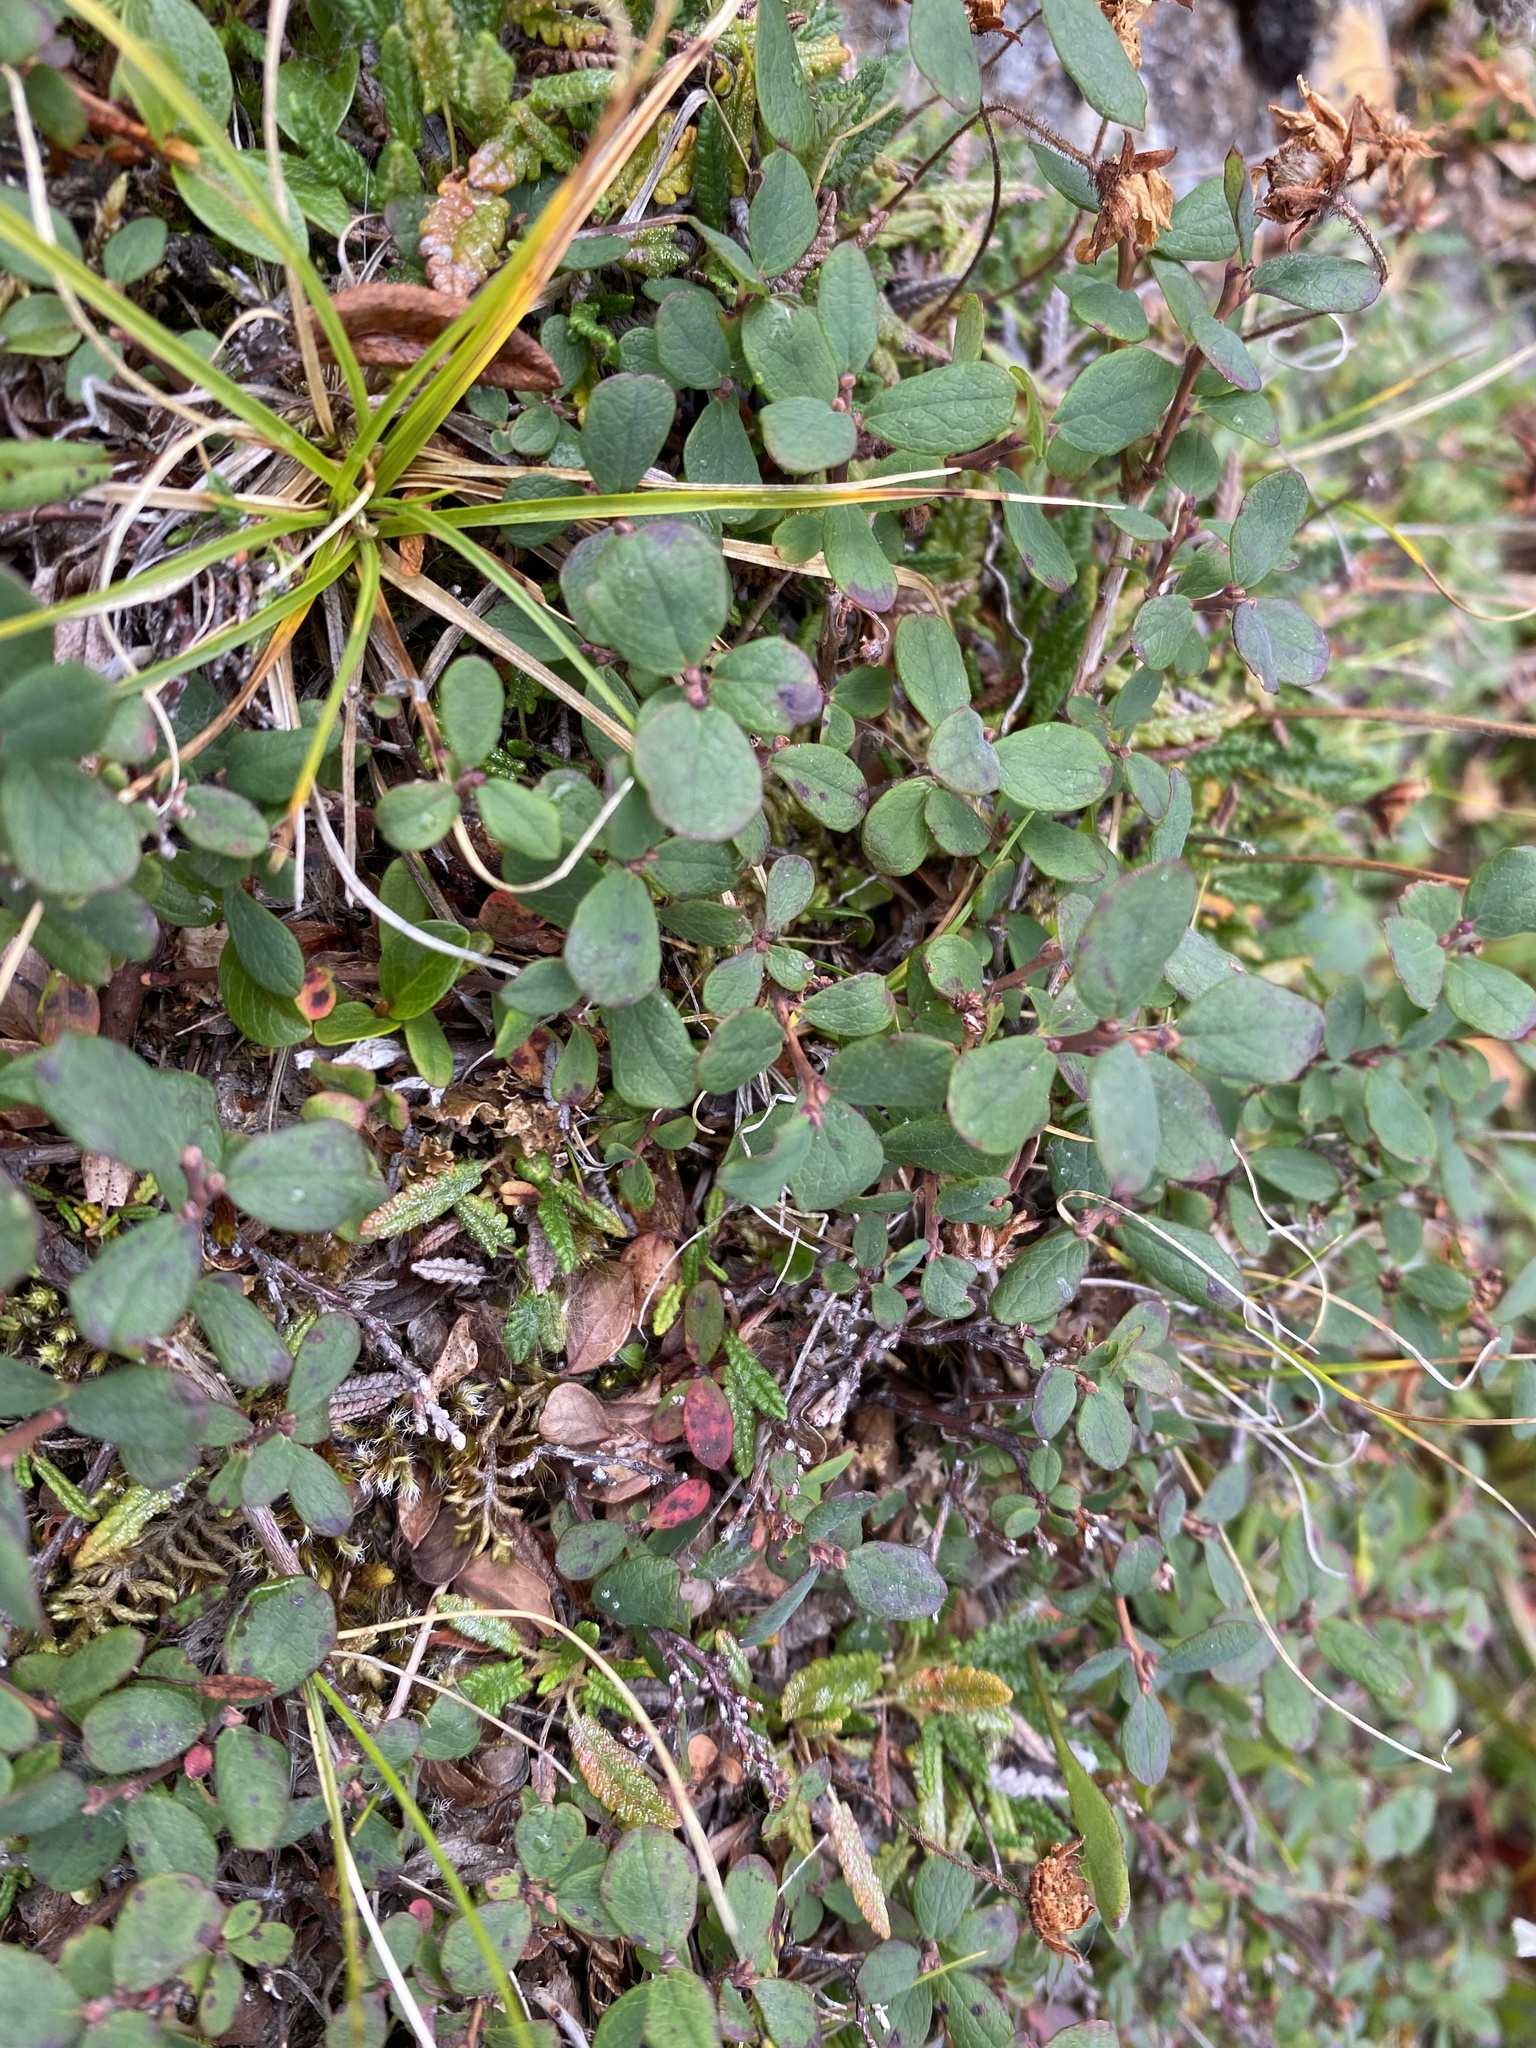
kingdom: Plantae
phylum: Tracheophyta
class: Magnoliopsida
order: Ericales
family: Ericaceae
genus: Vaccinium
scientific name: Vaccinium uliginosum
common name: Bog bilberry
